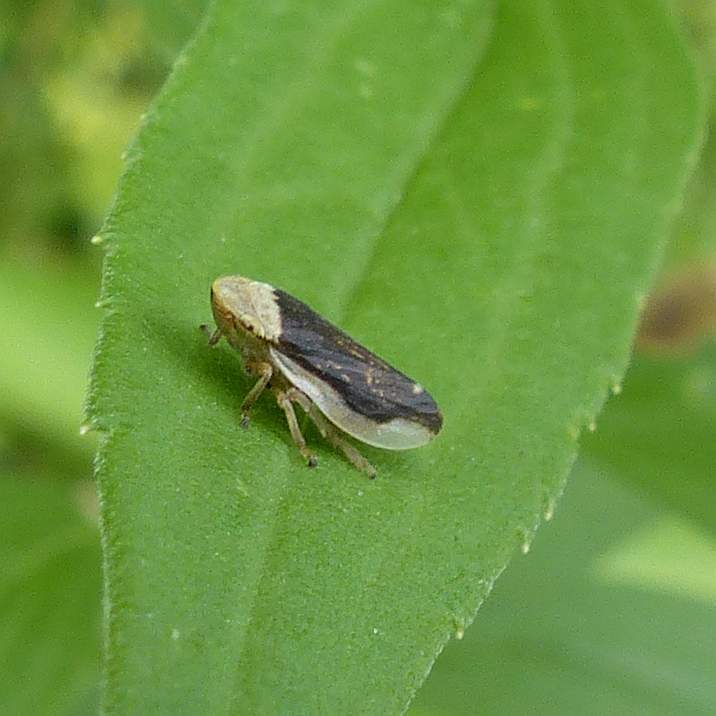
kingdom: Animalia
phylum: Arthropoda
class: Insecta
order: Hemiptera
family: Aphrophoridae
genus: Philaenus
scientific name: Philaenus spumarius
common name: Meadow spittlebug
